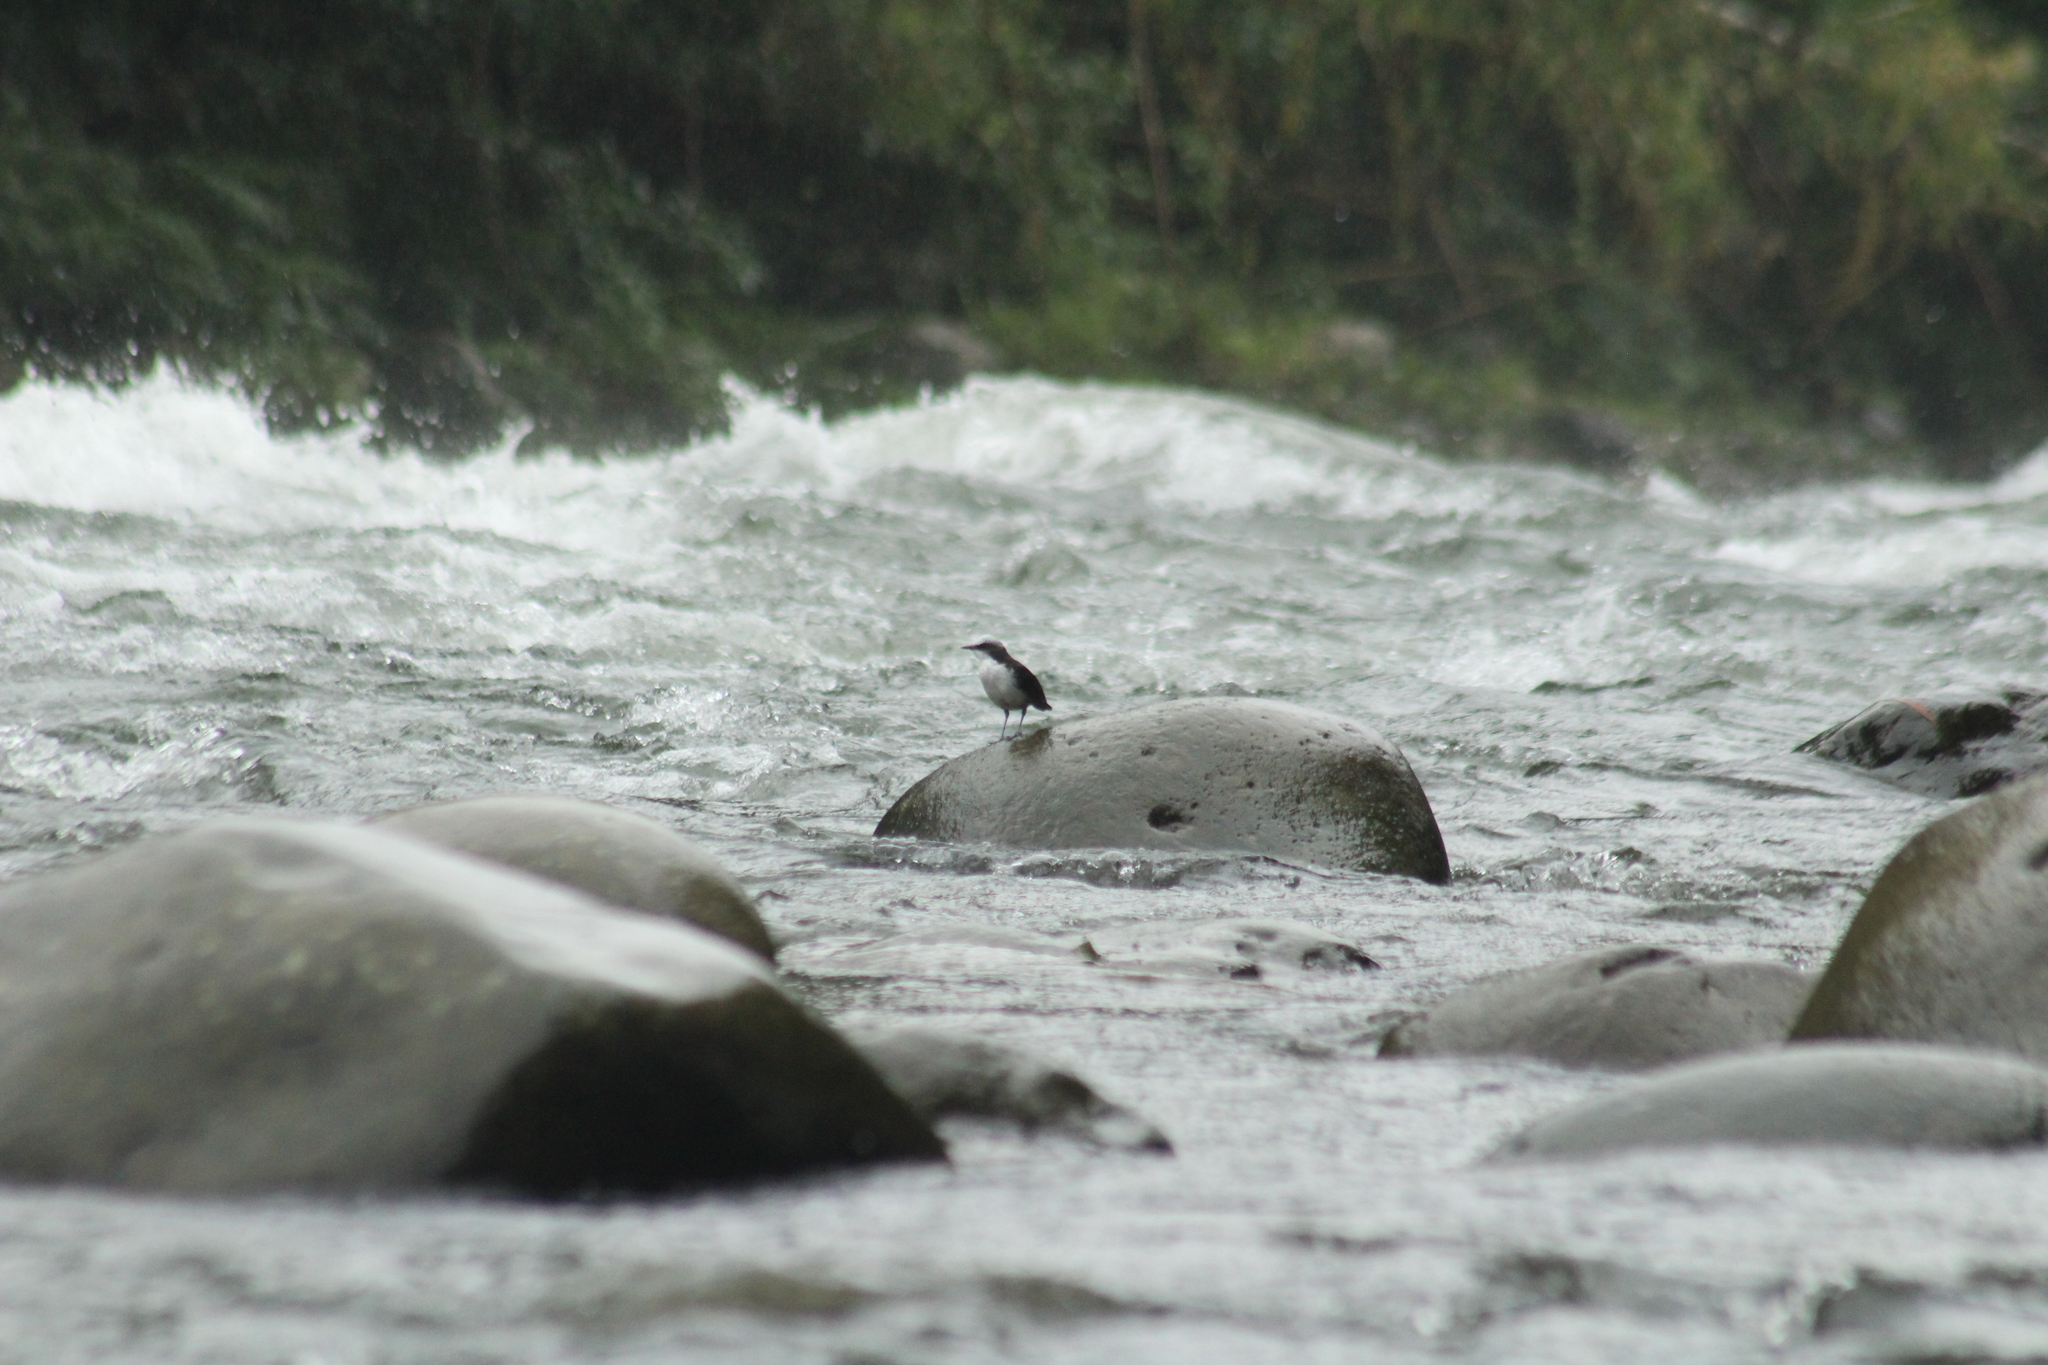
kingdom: Animalia
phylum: Chordata
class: Aves
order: Passeriformes
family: Cinclidae
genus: Cinclus
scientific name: Cinclus leucocephalus
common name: White-capped dipper
